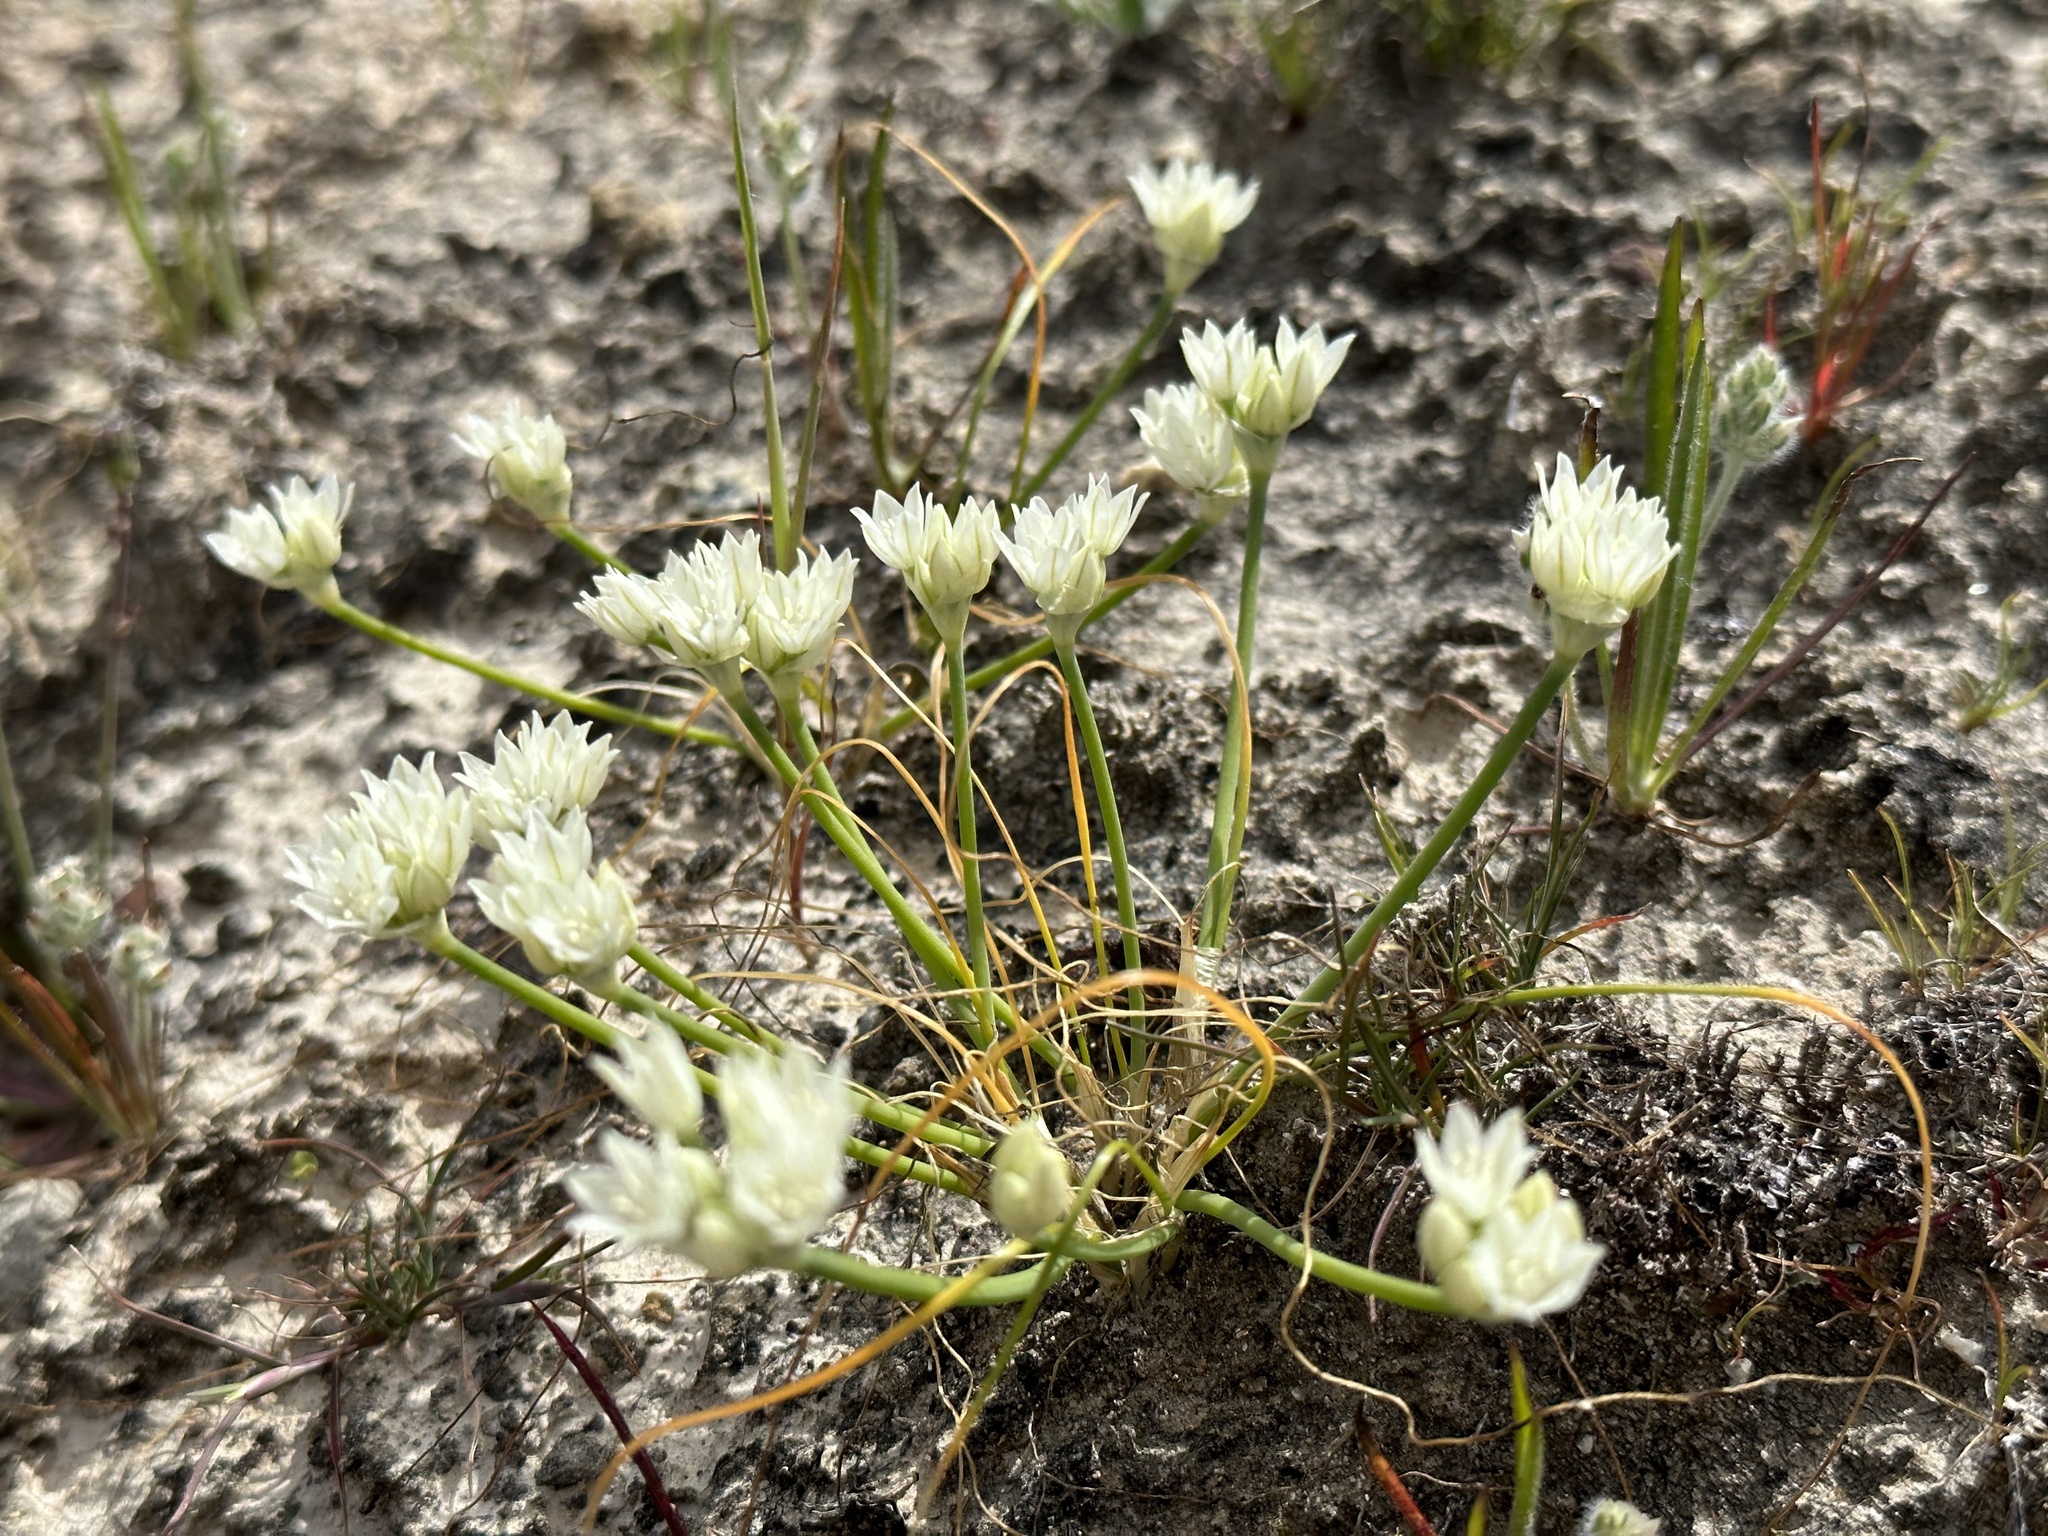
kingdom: Plantae
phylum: Tracheophyta
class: Liliopsida
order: Asparagales
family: Amaryllidaceae
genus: Allium
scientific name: Allium hickmanii
